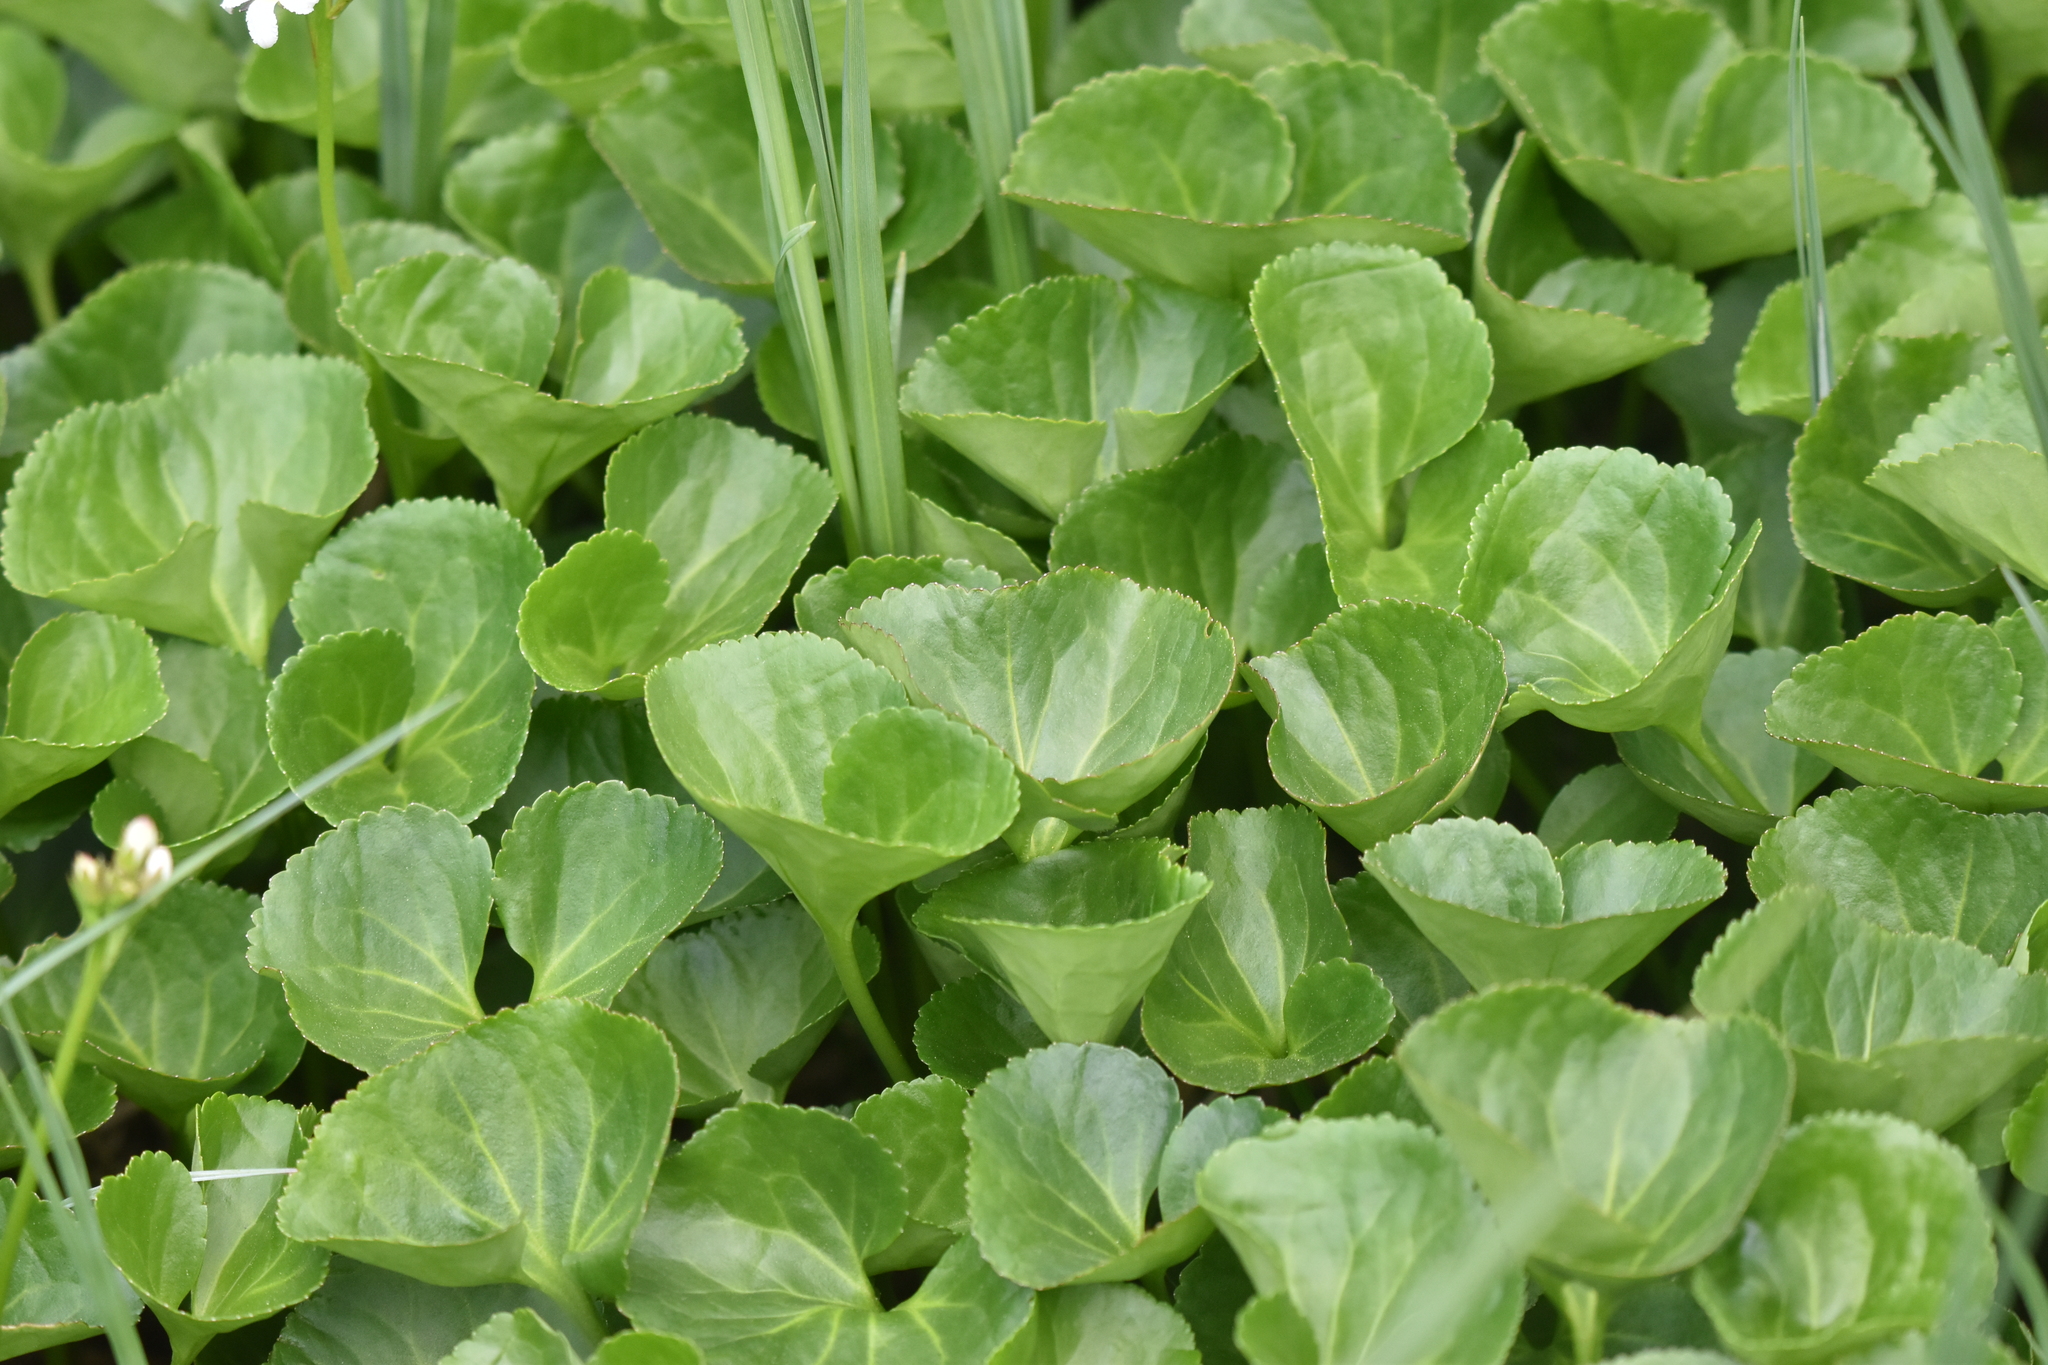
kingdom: Plantae
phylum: Tracheophyta
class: Magnoliopsida
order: Asterales
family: Menyanthaceae
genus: Nephrophyllidium
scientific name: Nephrophyllidium crista-galli
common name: Deer-cabbage
